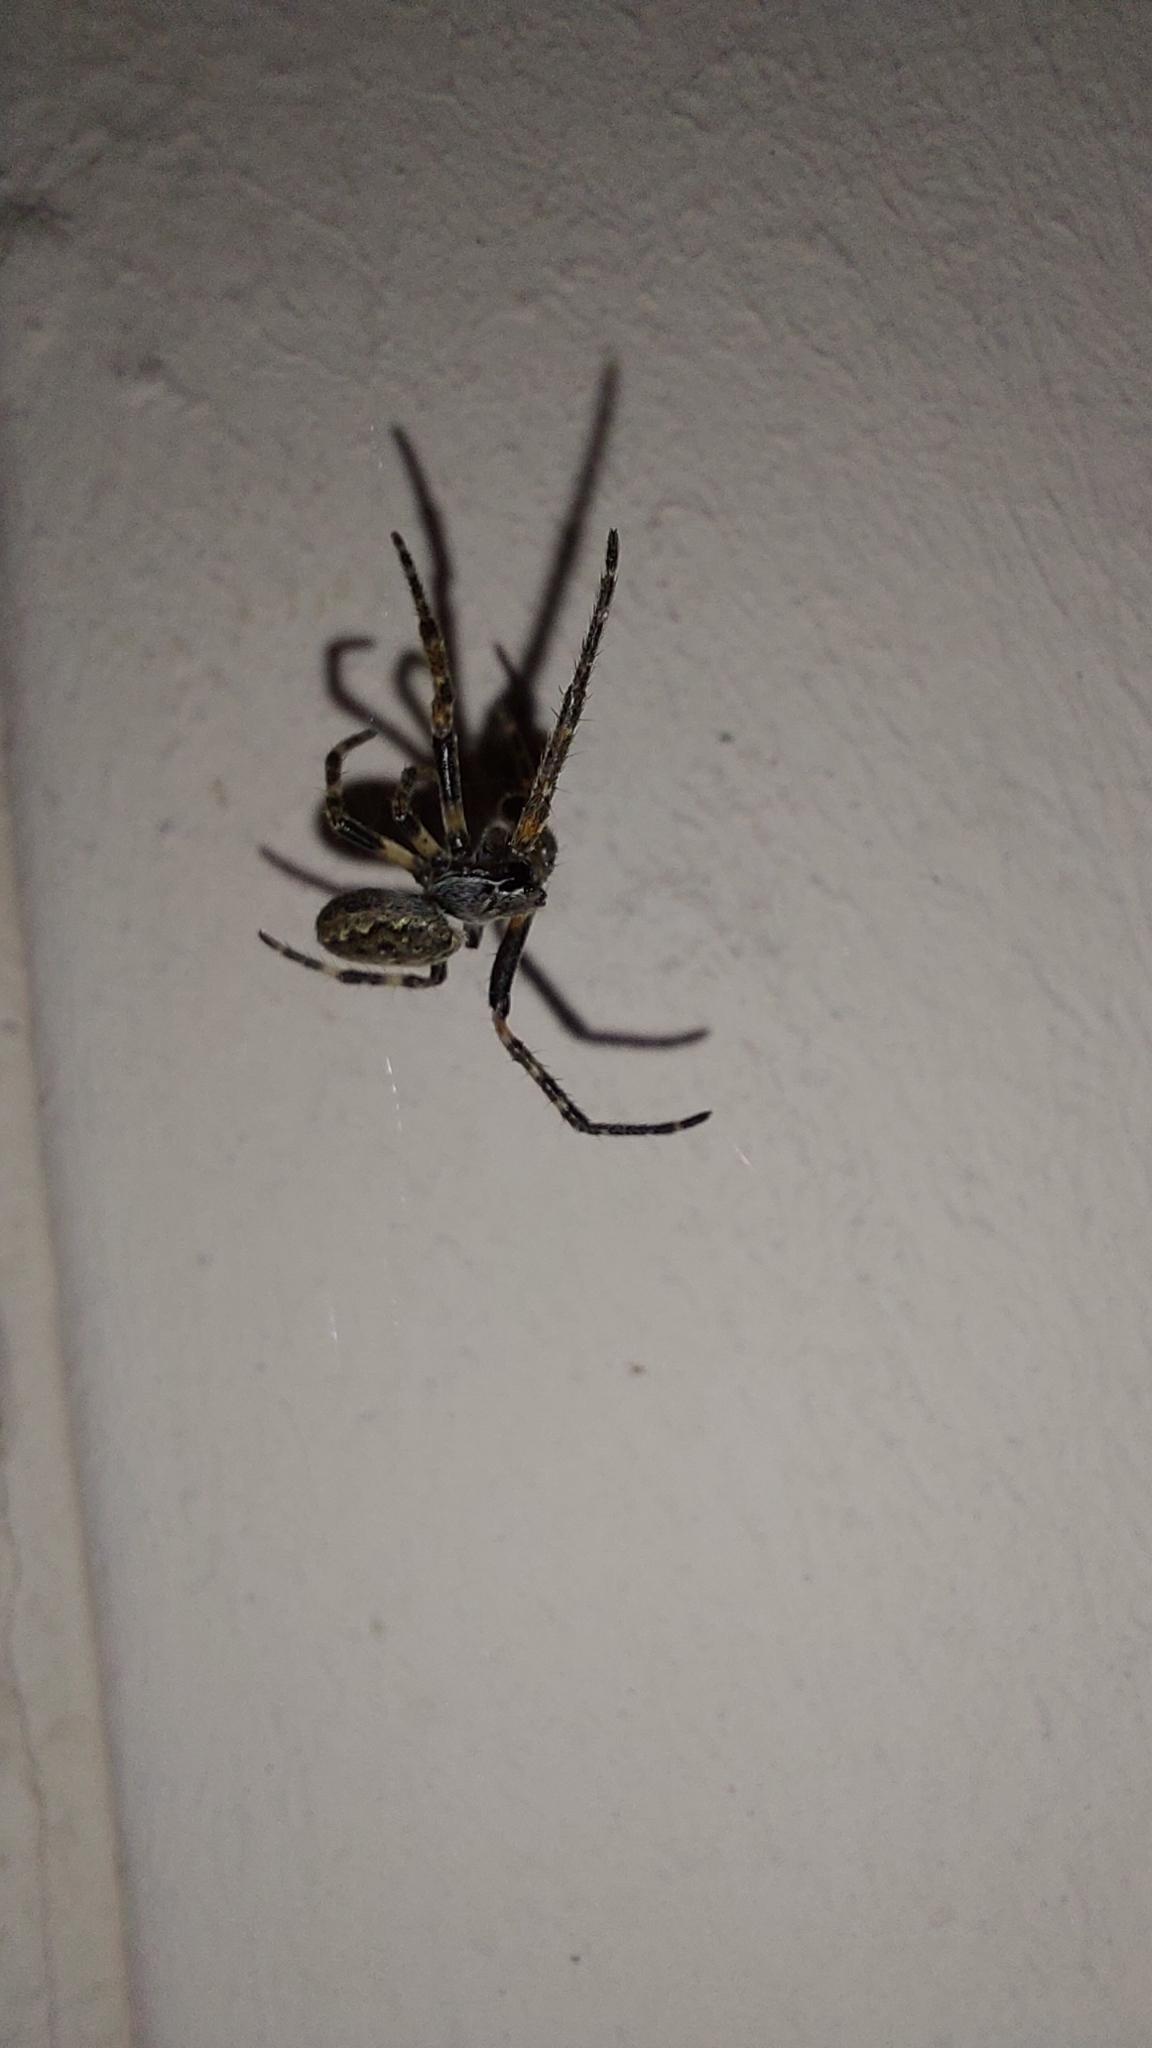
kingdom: Animalia
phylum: Arthropoda
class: Arachnida
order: Araneae
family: Araneidae
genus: Nuctenea
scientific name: Nuctenea umbratica
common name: Toad spider
